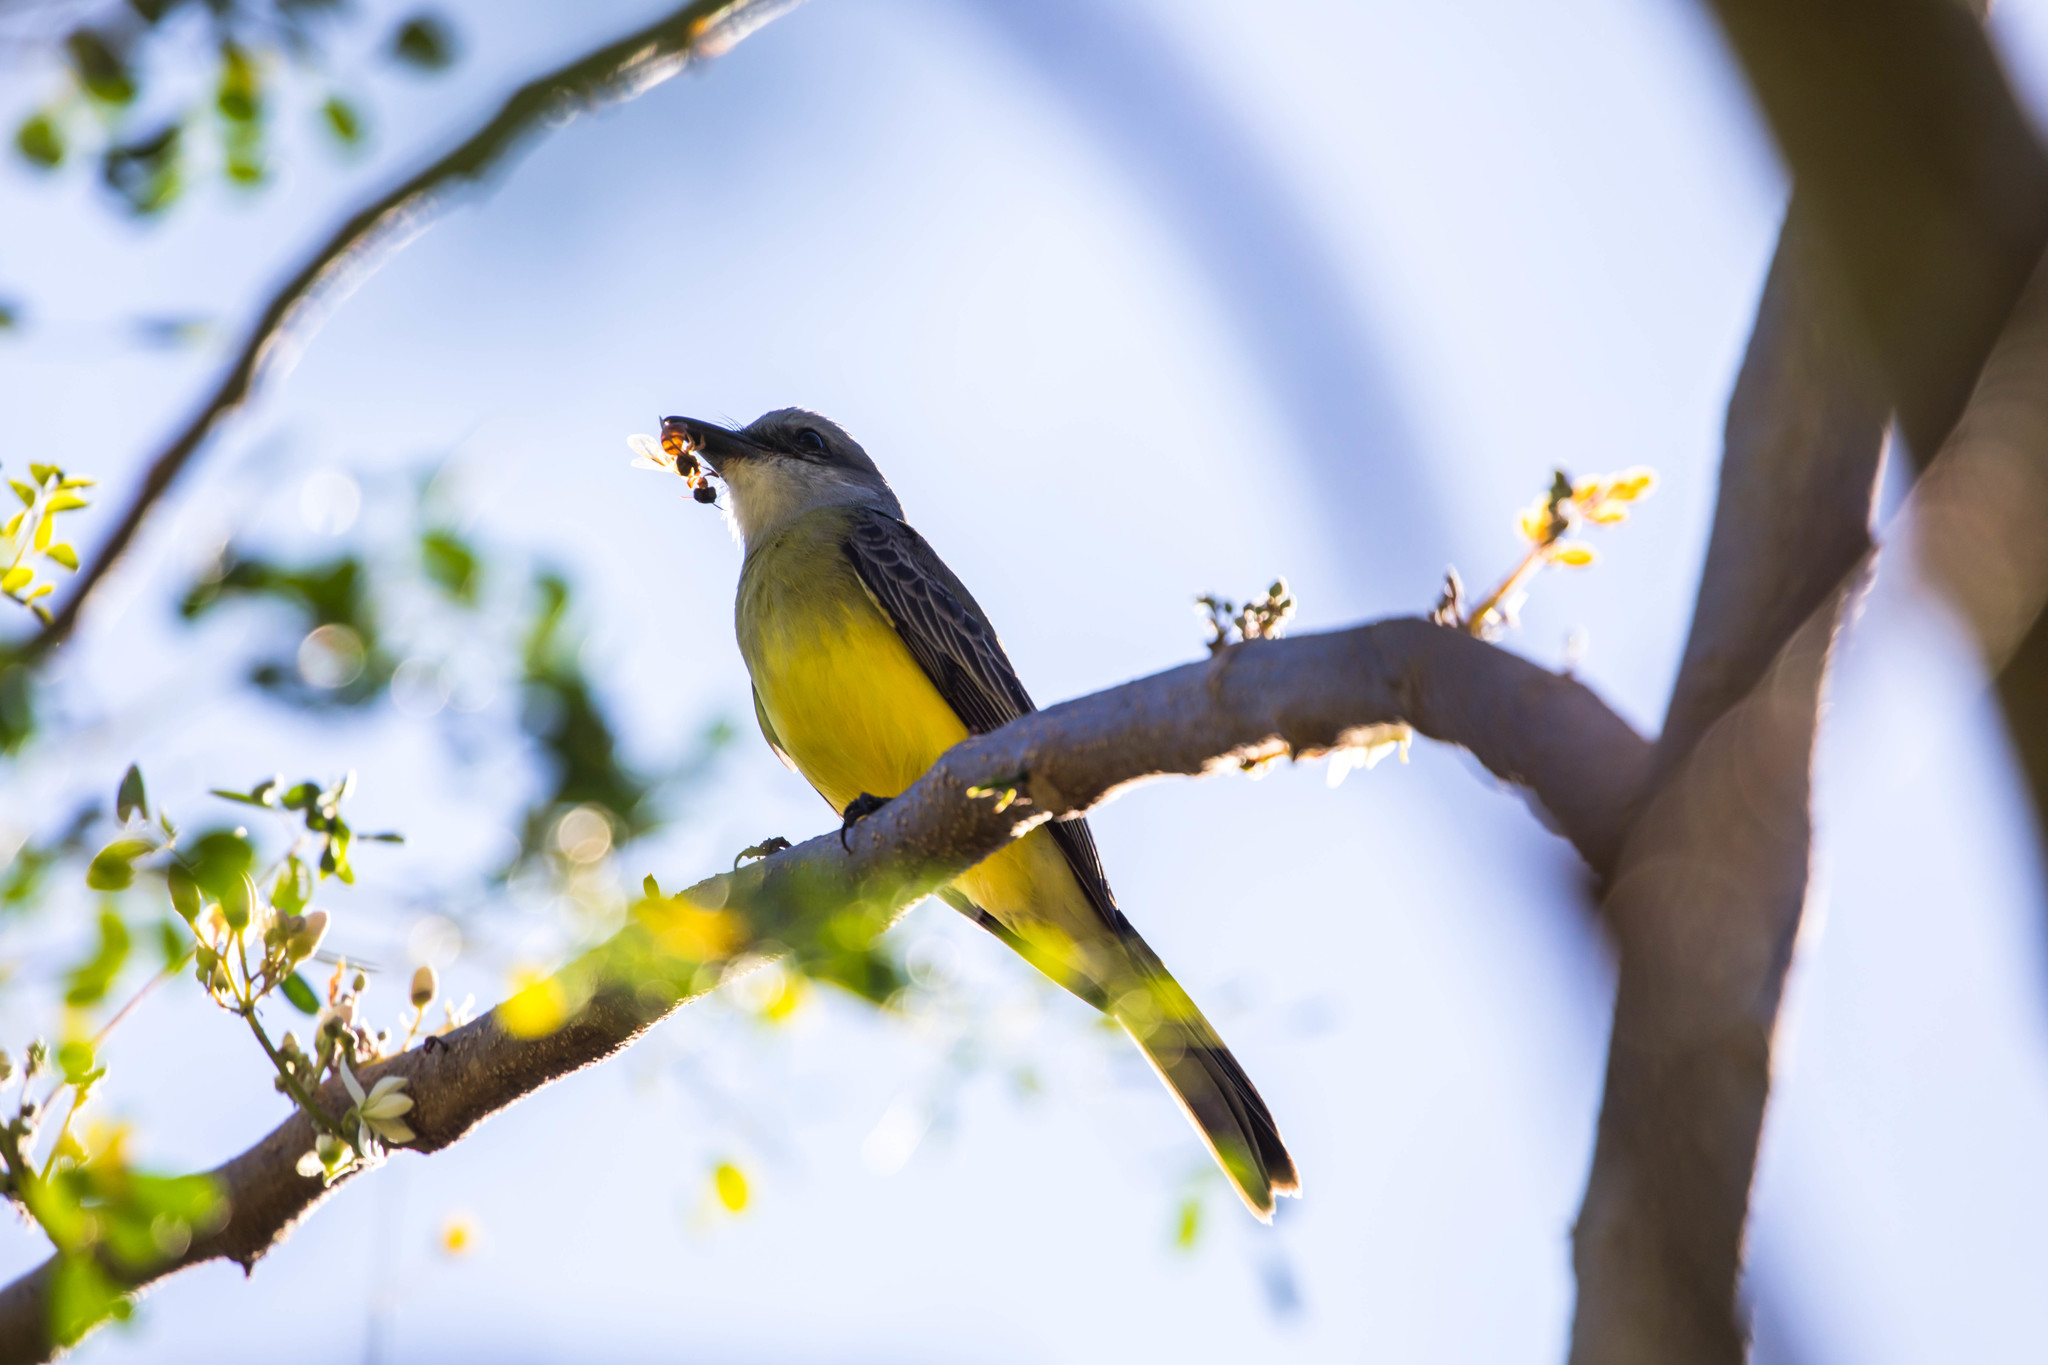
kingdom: Animalia
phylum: Chordata
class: Aves
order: Passeriformes
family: Tyrannidae
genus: Tyrannus
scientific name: Tyrannus melancholicus
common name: Tropical kingbird
